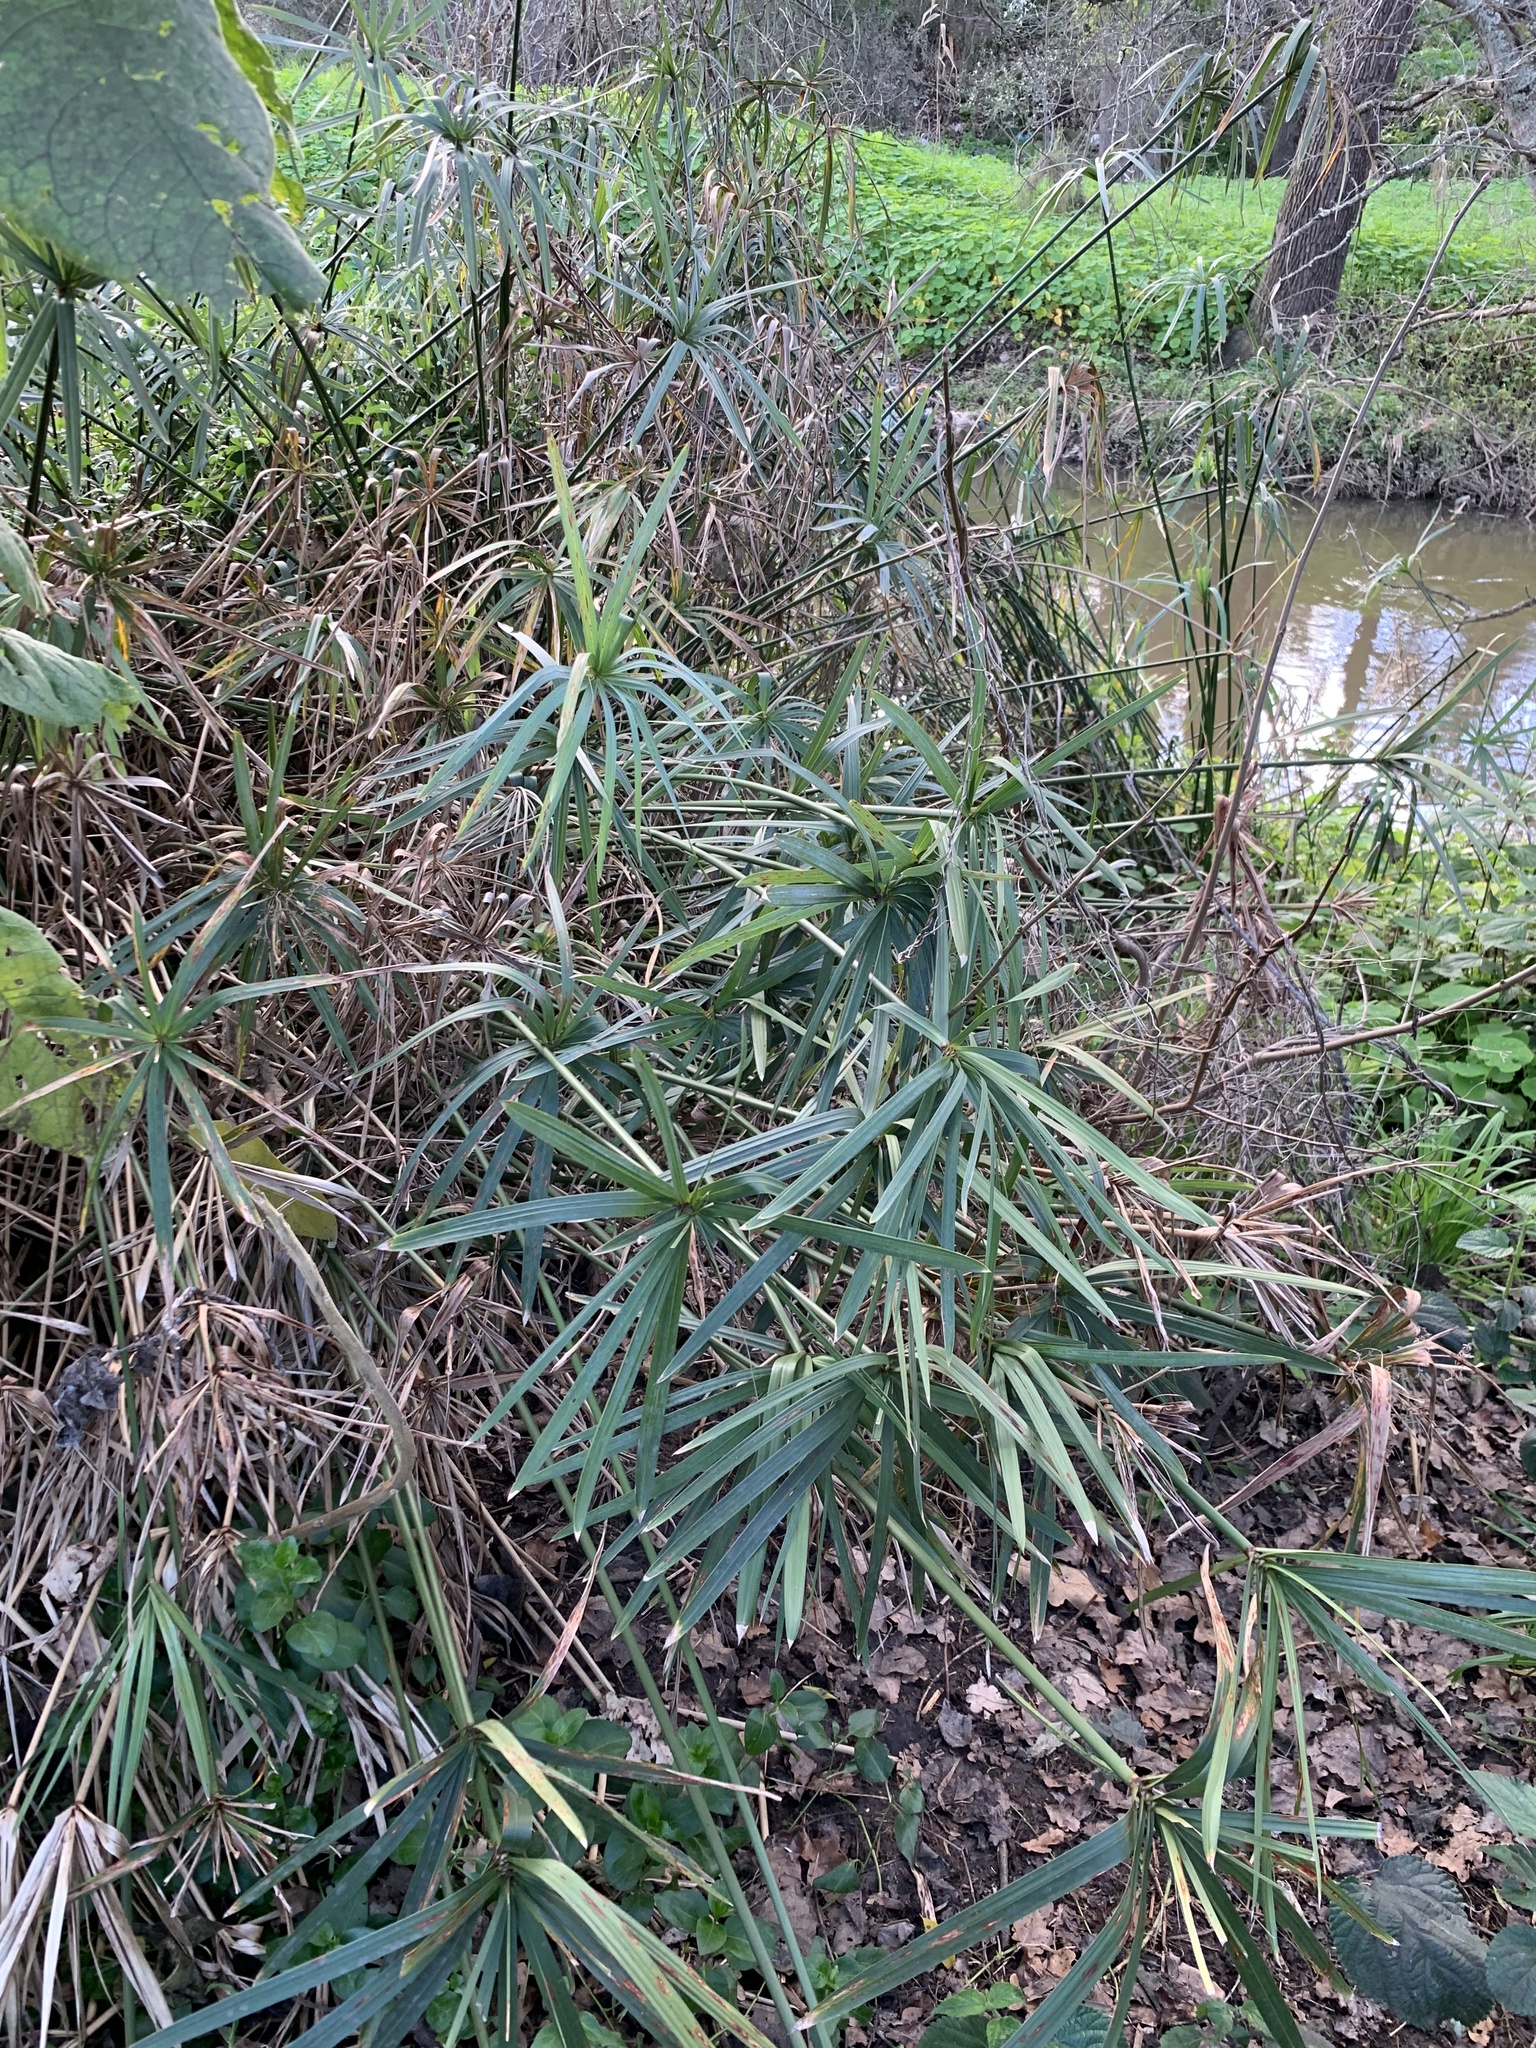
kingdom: Plantae
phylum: Tracheophyta
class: Liliopsida
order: Poales
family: Cyperaceae
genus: Cyperus
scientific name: Cyperus textilis
